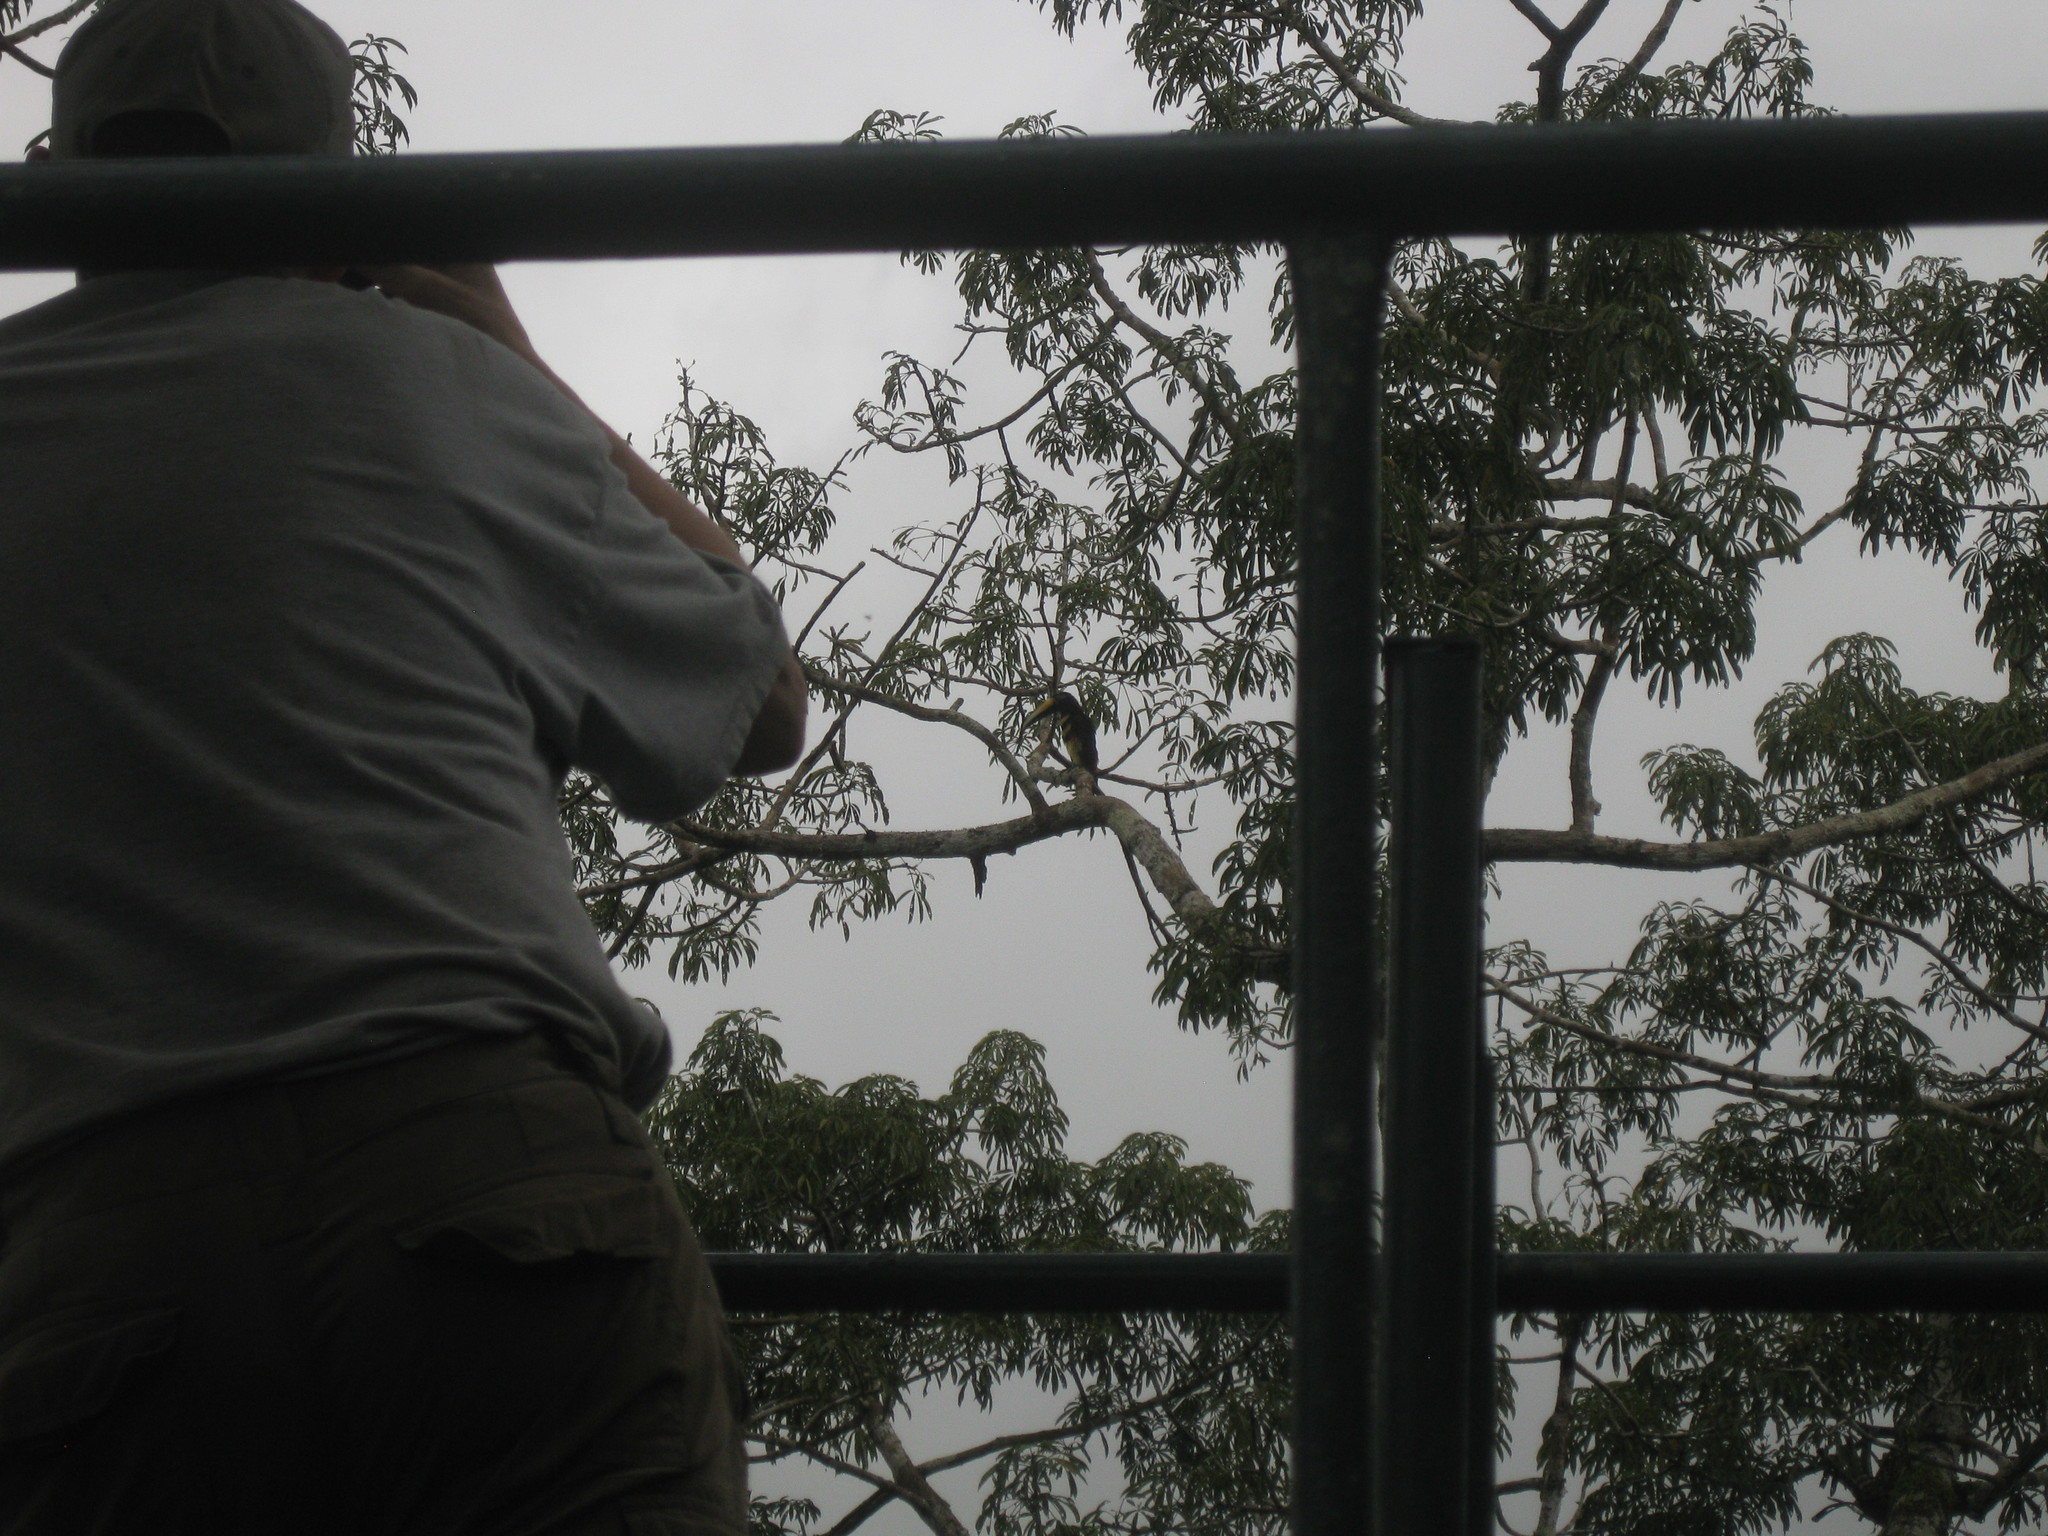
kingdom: Animalia
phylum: Chordata
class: Aves
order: Piciformes
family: Ramphastidae
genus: Pteroglossus
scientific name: Pteroglossus pluricinctus
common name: Many-banded aracari
